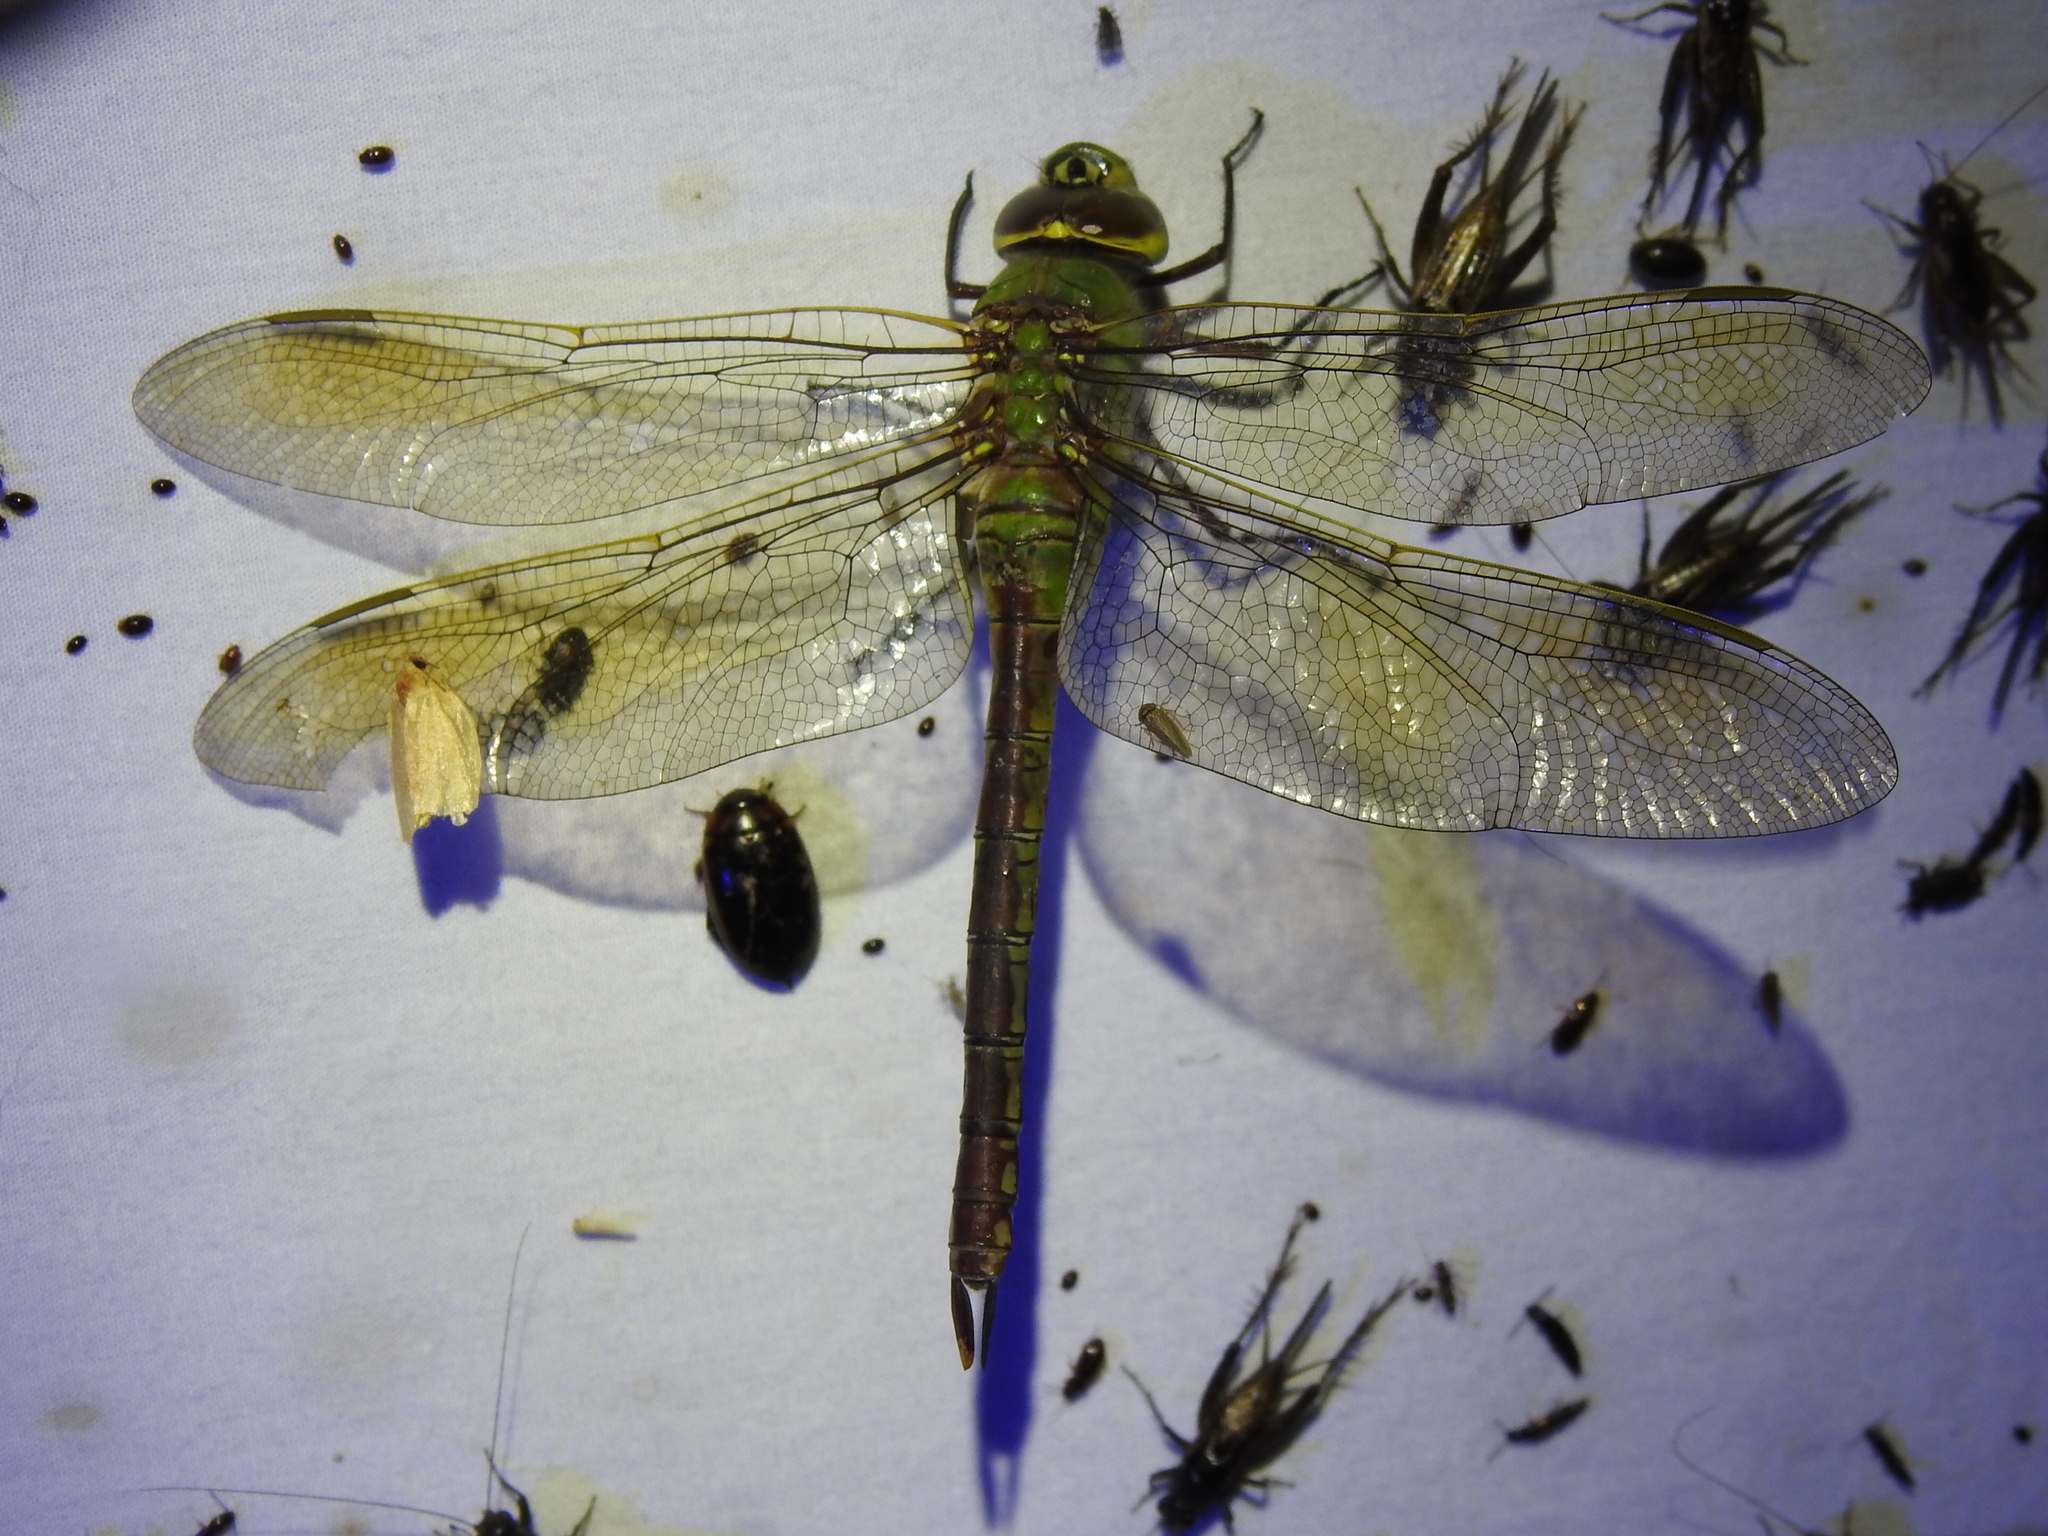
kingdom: Animalia
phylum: Arthropoda
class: Insecta
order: Odonata
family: Aeshnidae
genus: Anax
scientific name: Anax junius
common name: Common green darner
